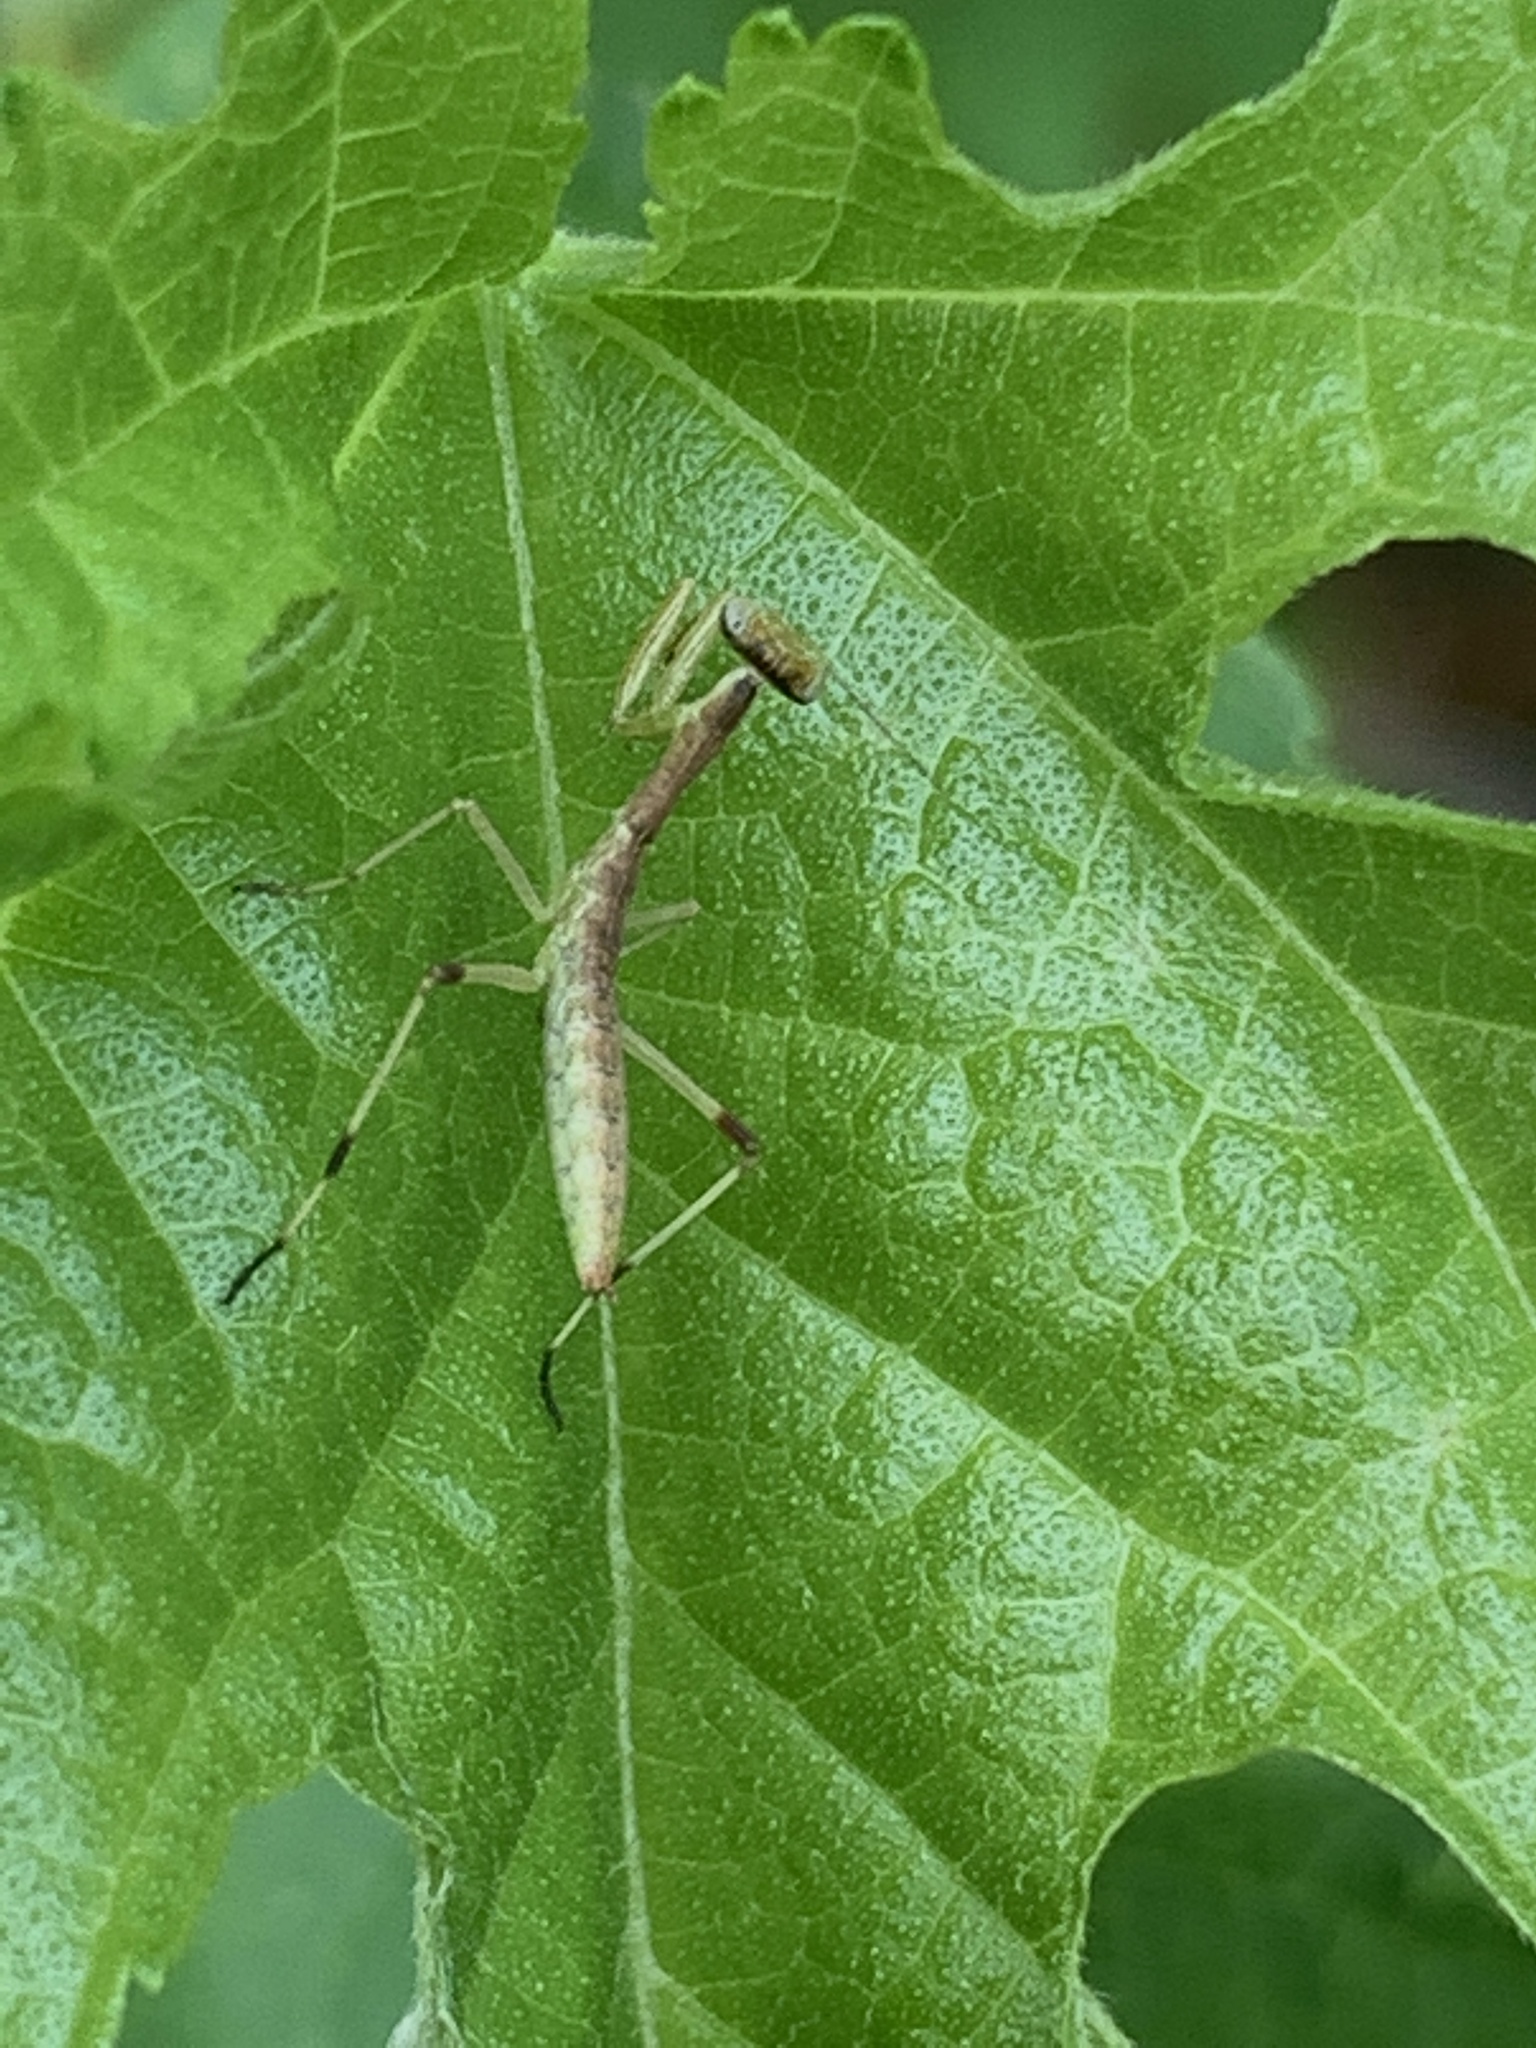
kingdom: Animalia
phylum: Arthropoda
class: Insecta
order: Mantodea
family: Mantidae
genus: Stagmomantis
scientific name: Stagmomantis carolina
